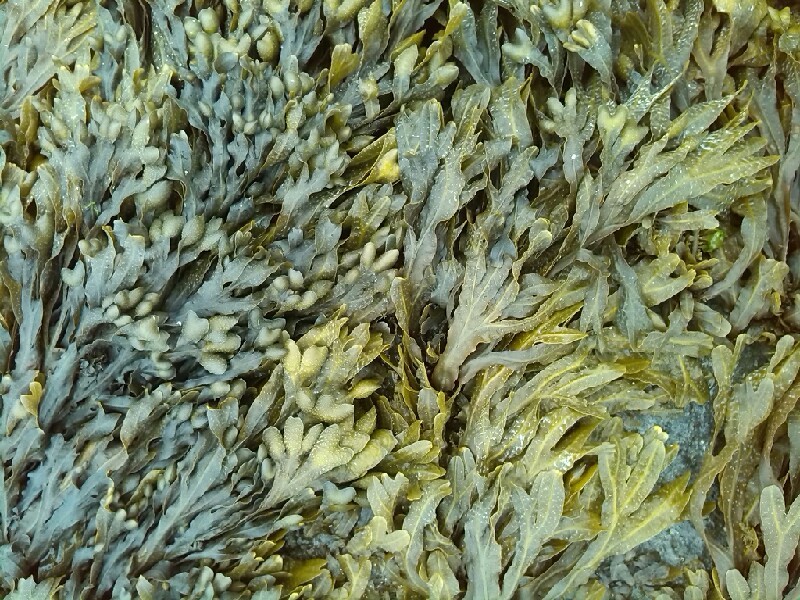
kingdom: Chromista
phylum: Ochrophyta
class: Phaeophyceae
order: Fucales
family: Fucaceae
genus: Fucus
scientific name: Fucus spiralis
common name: Spiral wrack
